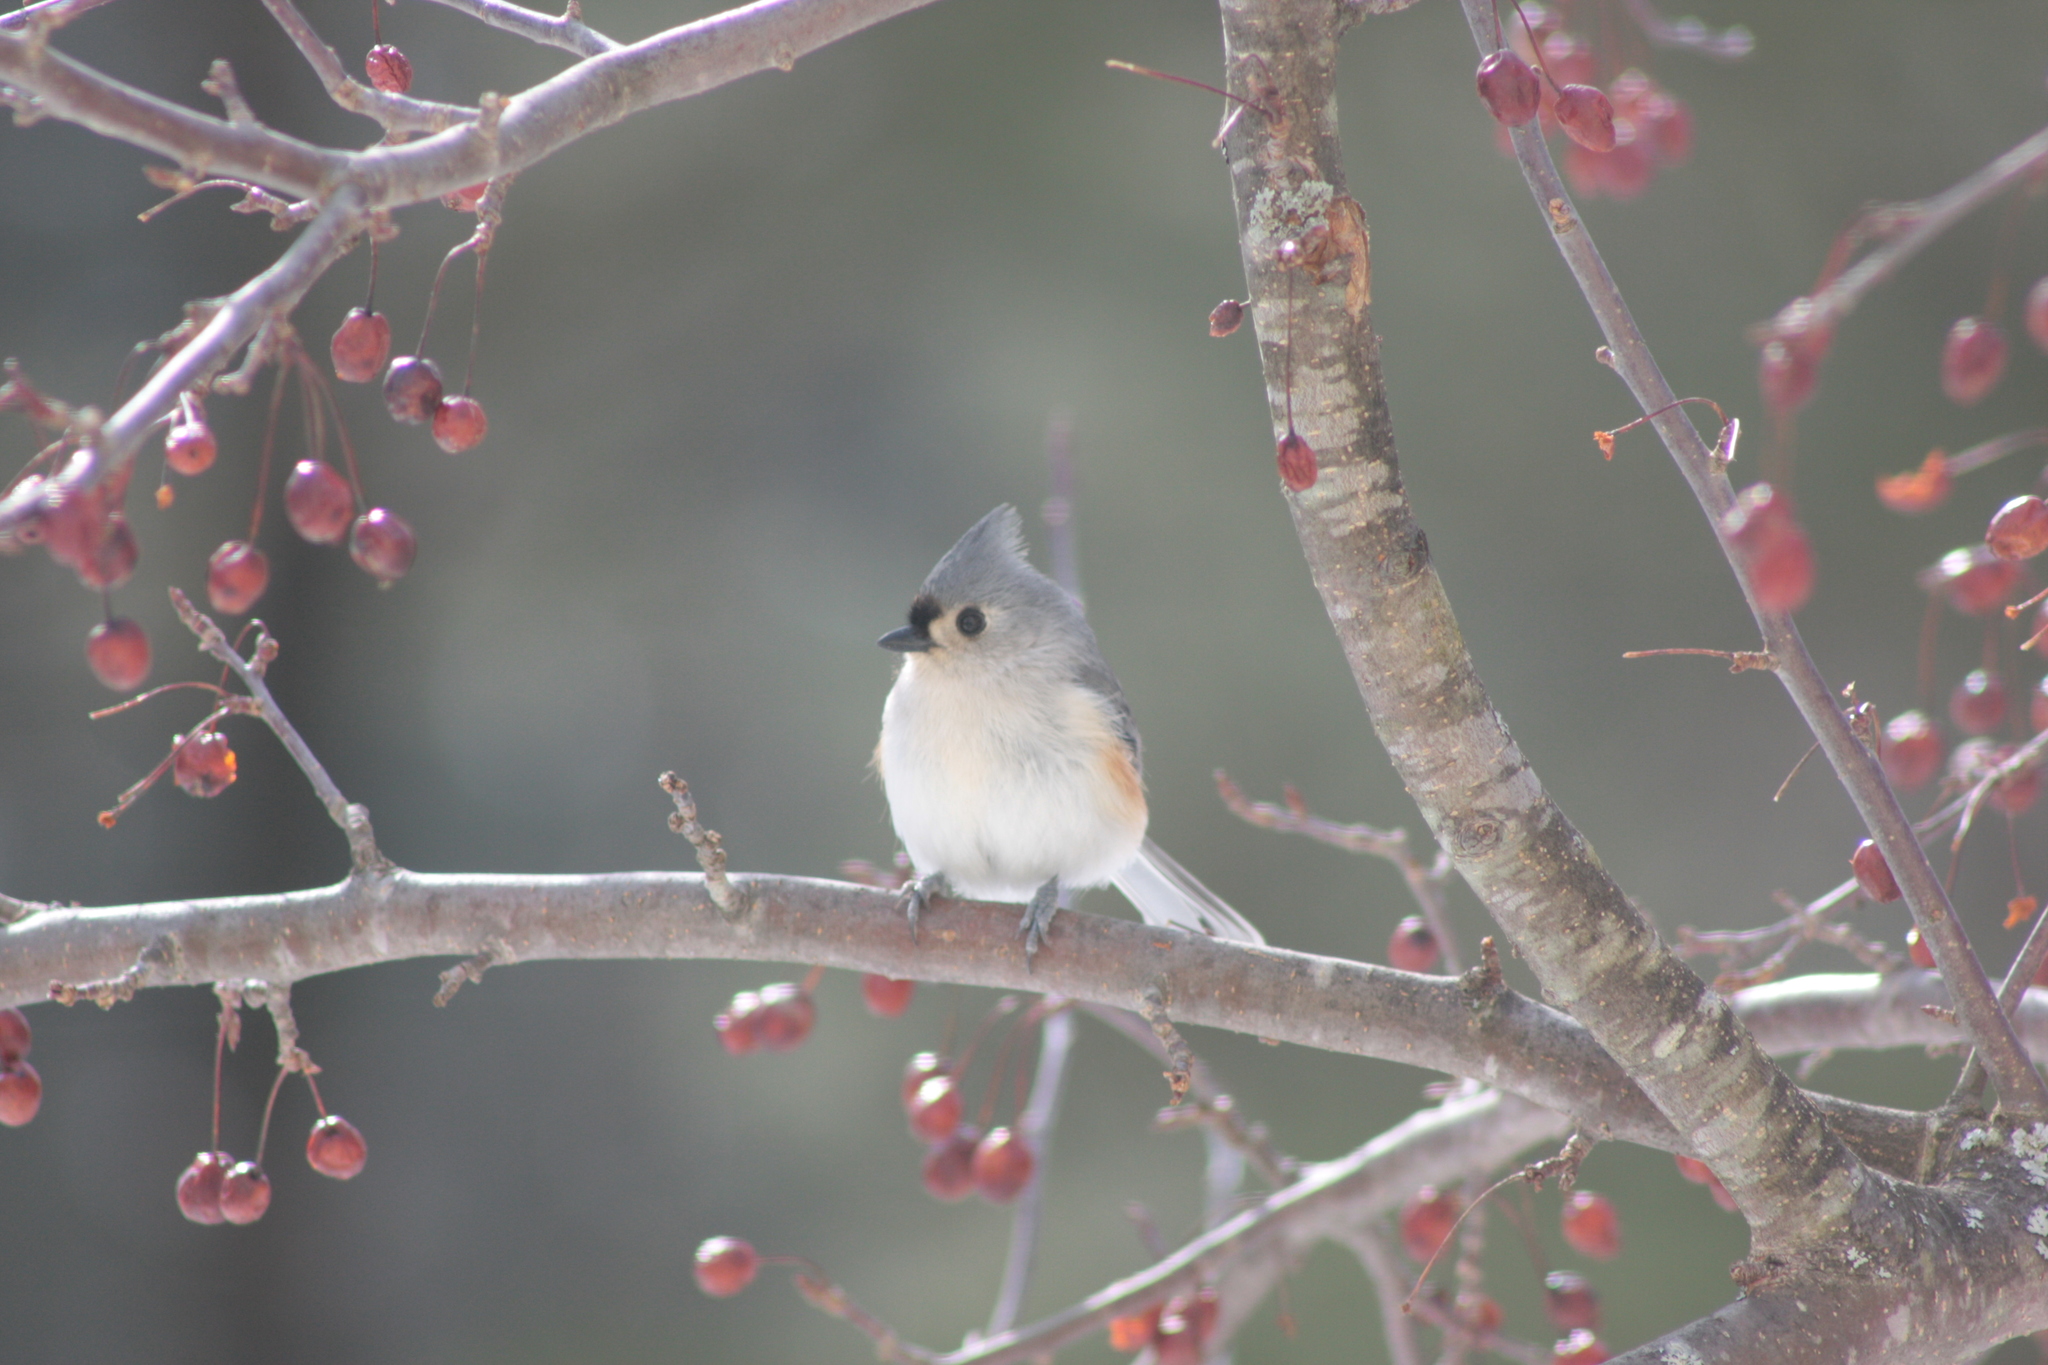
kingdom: Animalia
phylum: Chordata
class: Aves
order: Passeriformes
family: Paridae
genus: Baeolophus
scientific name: Baeolophus bicolor
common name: Tufted titmouse
